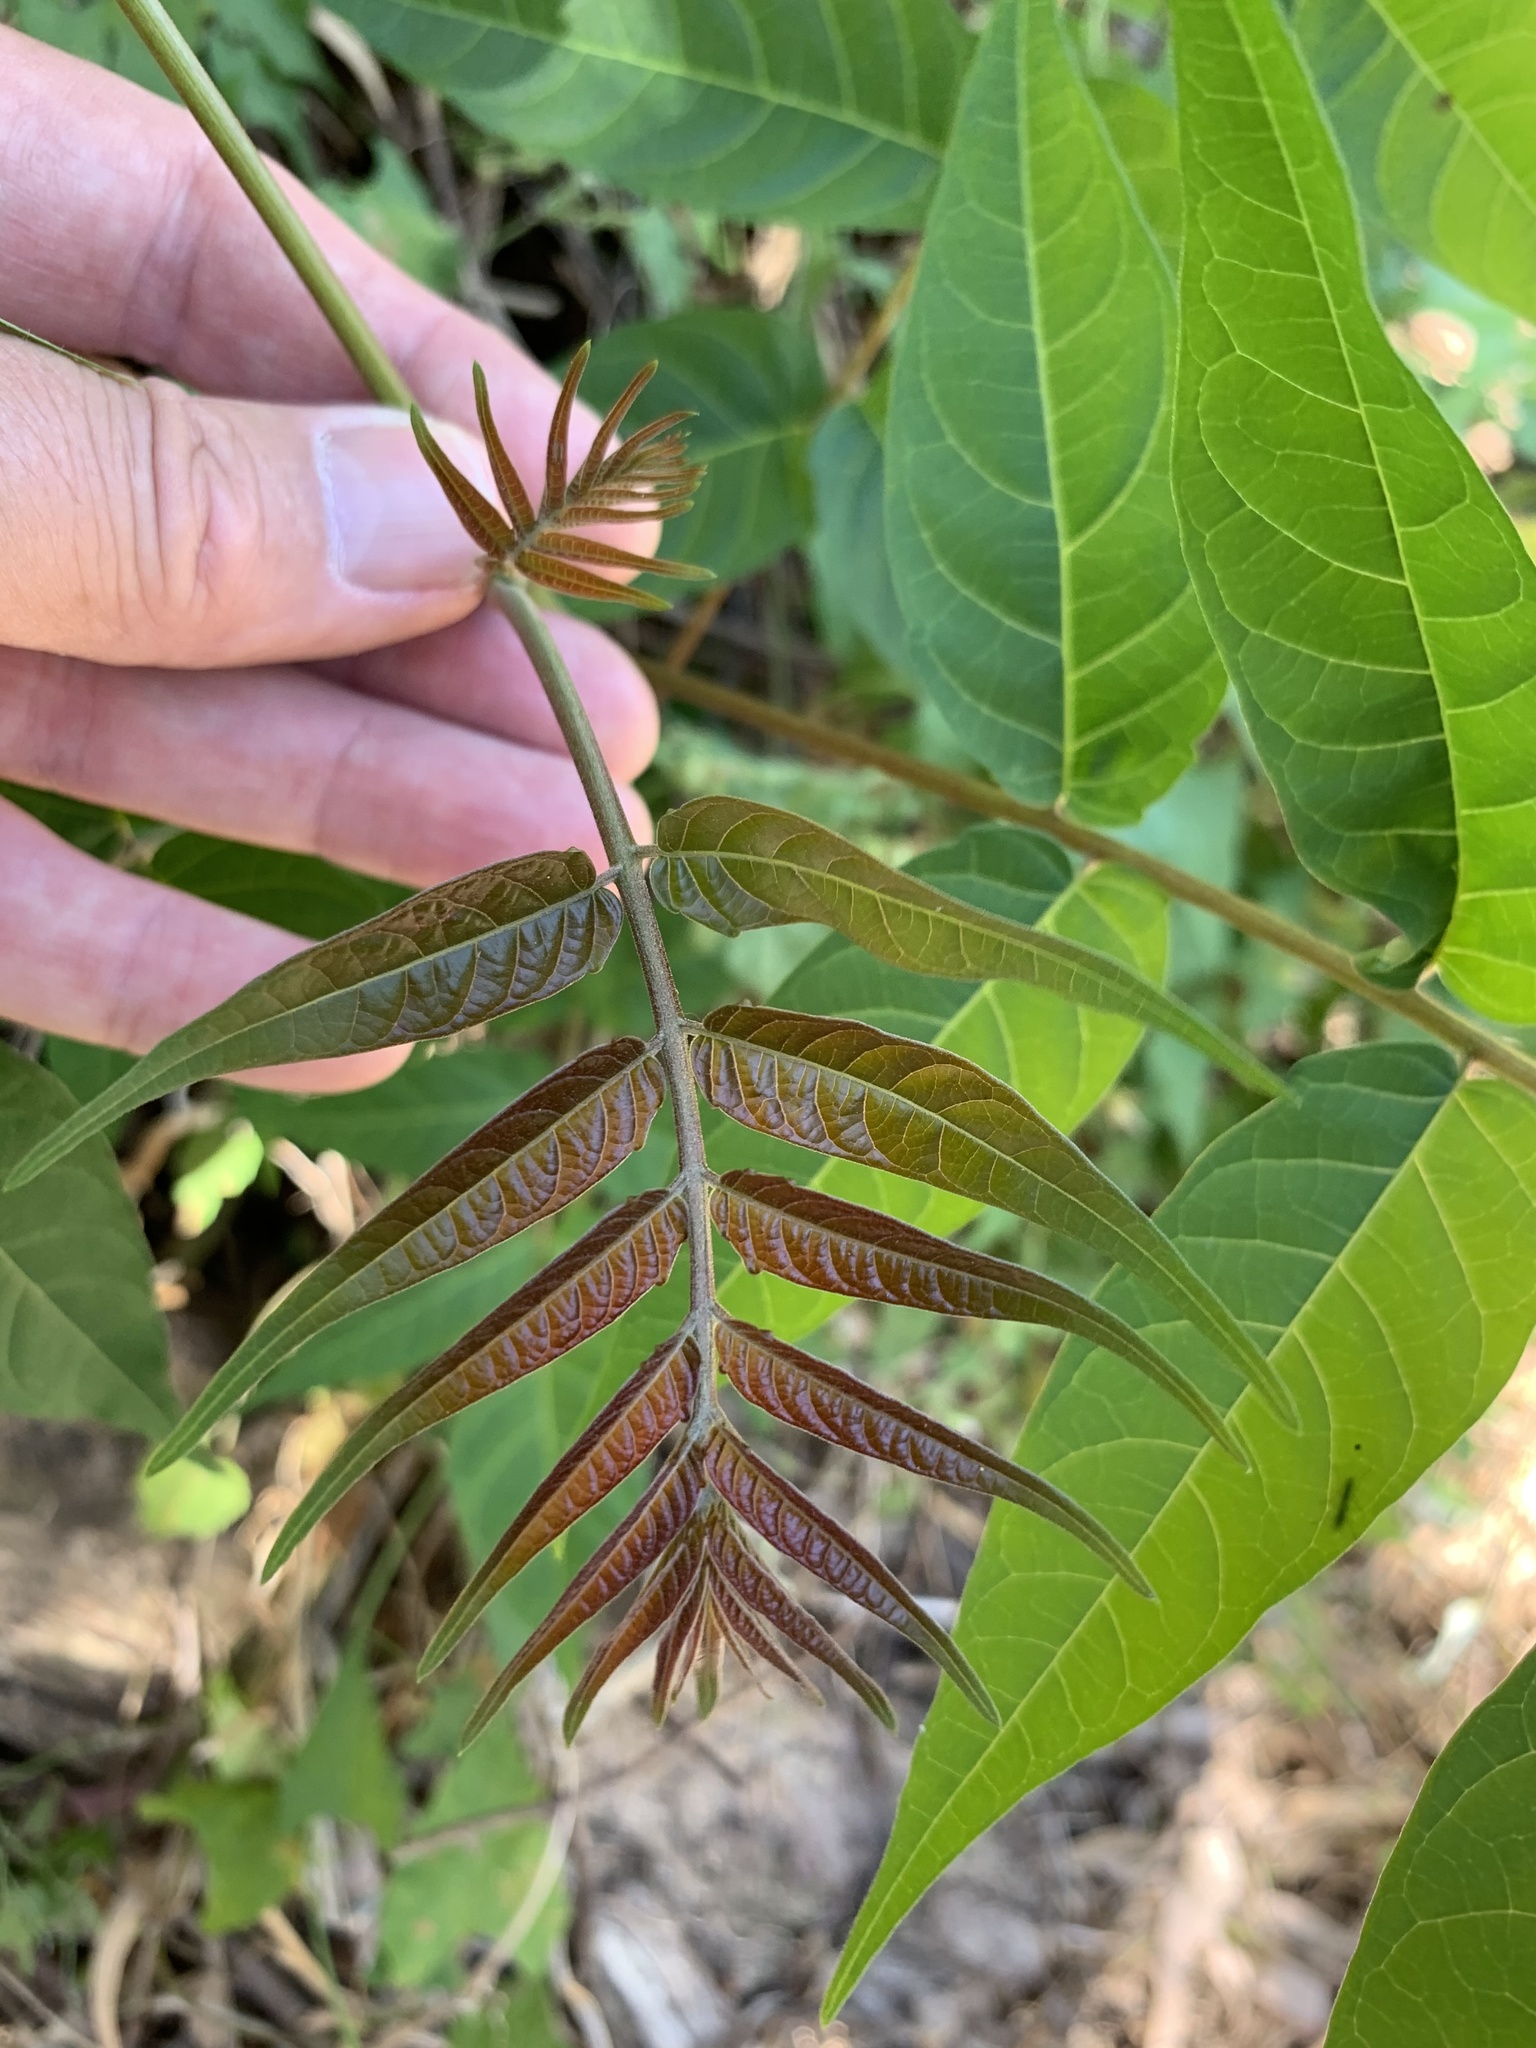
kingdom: Plantae
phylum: Tracheophyta
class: Magnoliopsida
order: Sapindales
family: Simaroubaceae
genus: Ailanthus
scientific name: Ailanthus altissima
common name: Tree-of-heaven
